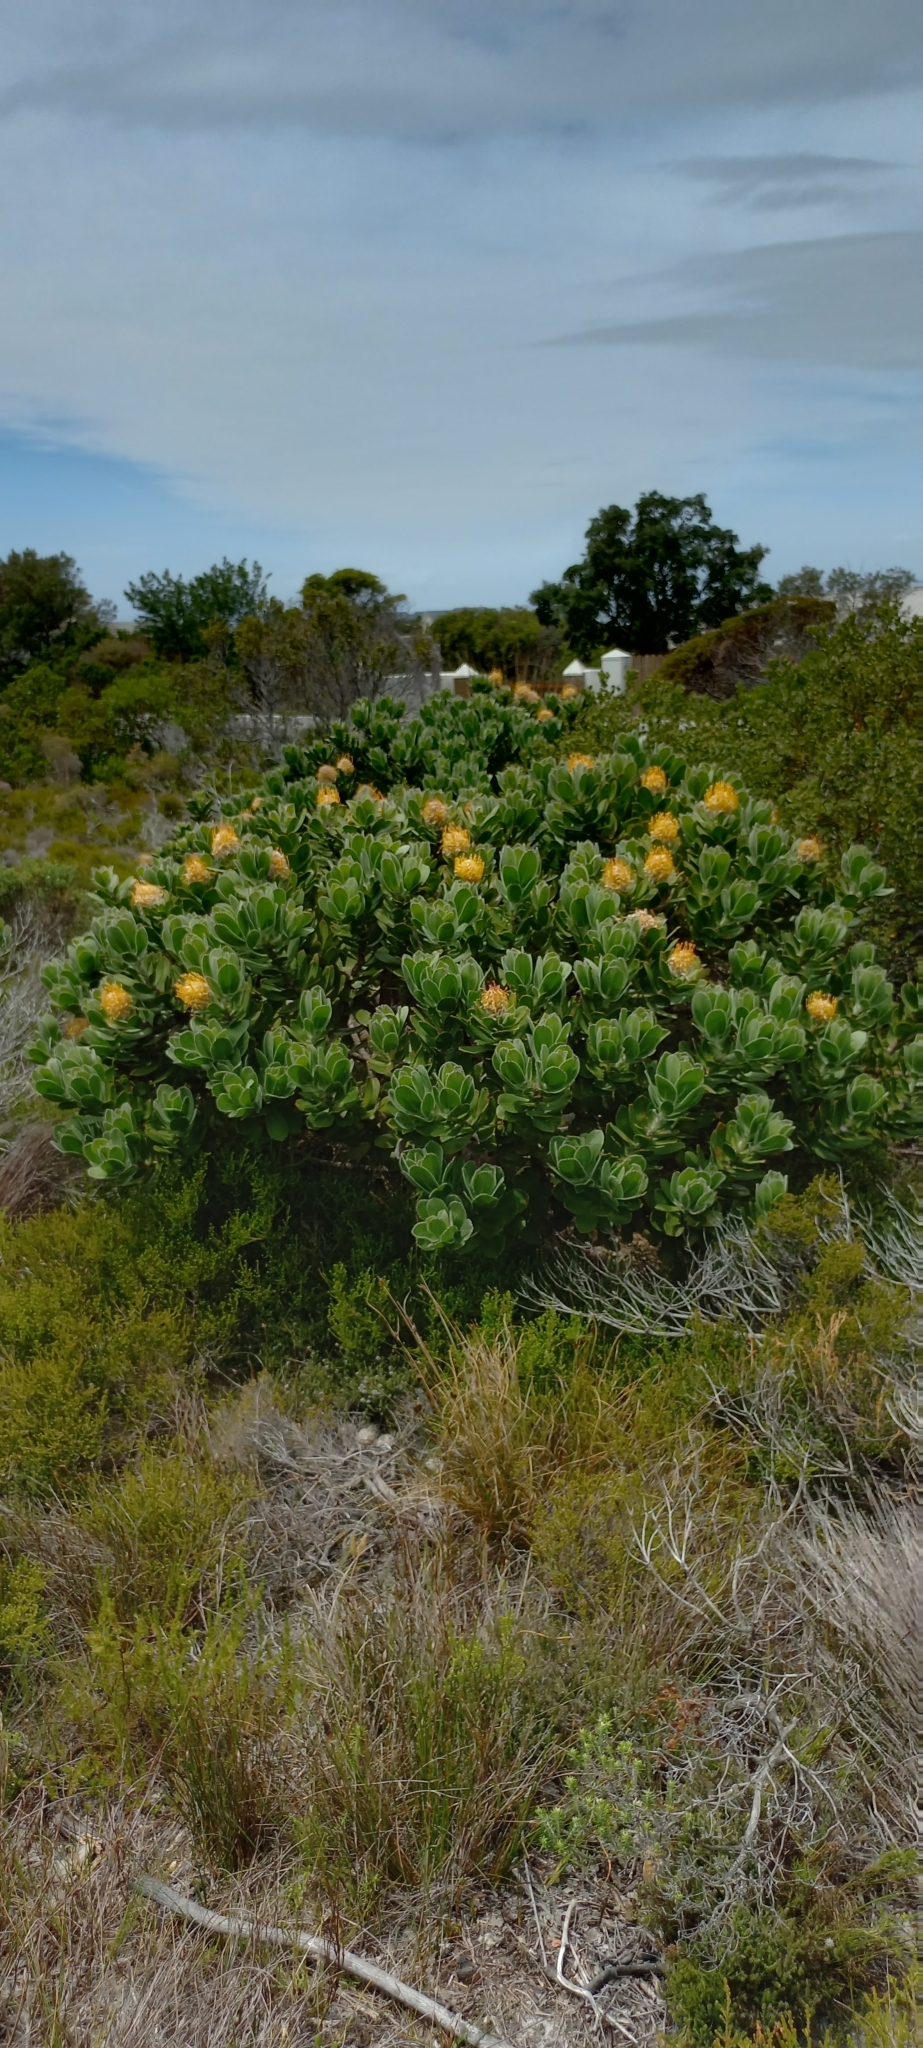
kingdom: Plantae
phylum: Tracheophyta
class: Magnoliopsida
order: Proteales
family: Proteaceae
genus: Leucospermum
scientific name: Leucospermum conocarpodendron
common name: Tree pincushion
